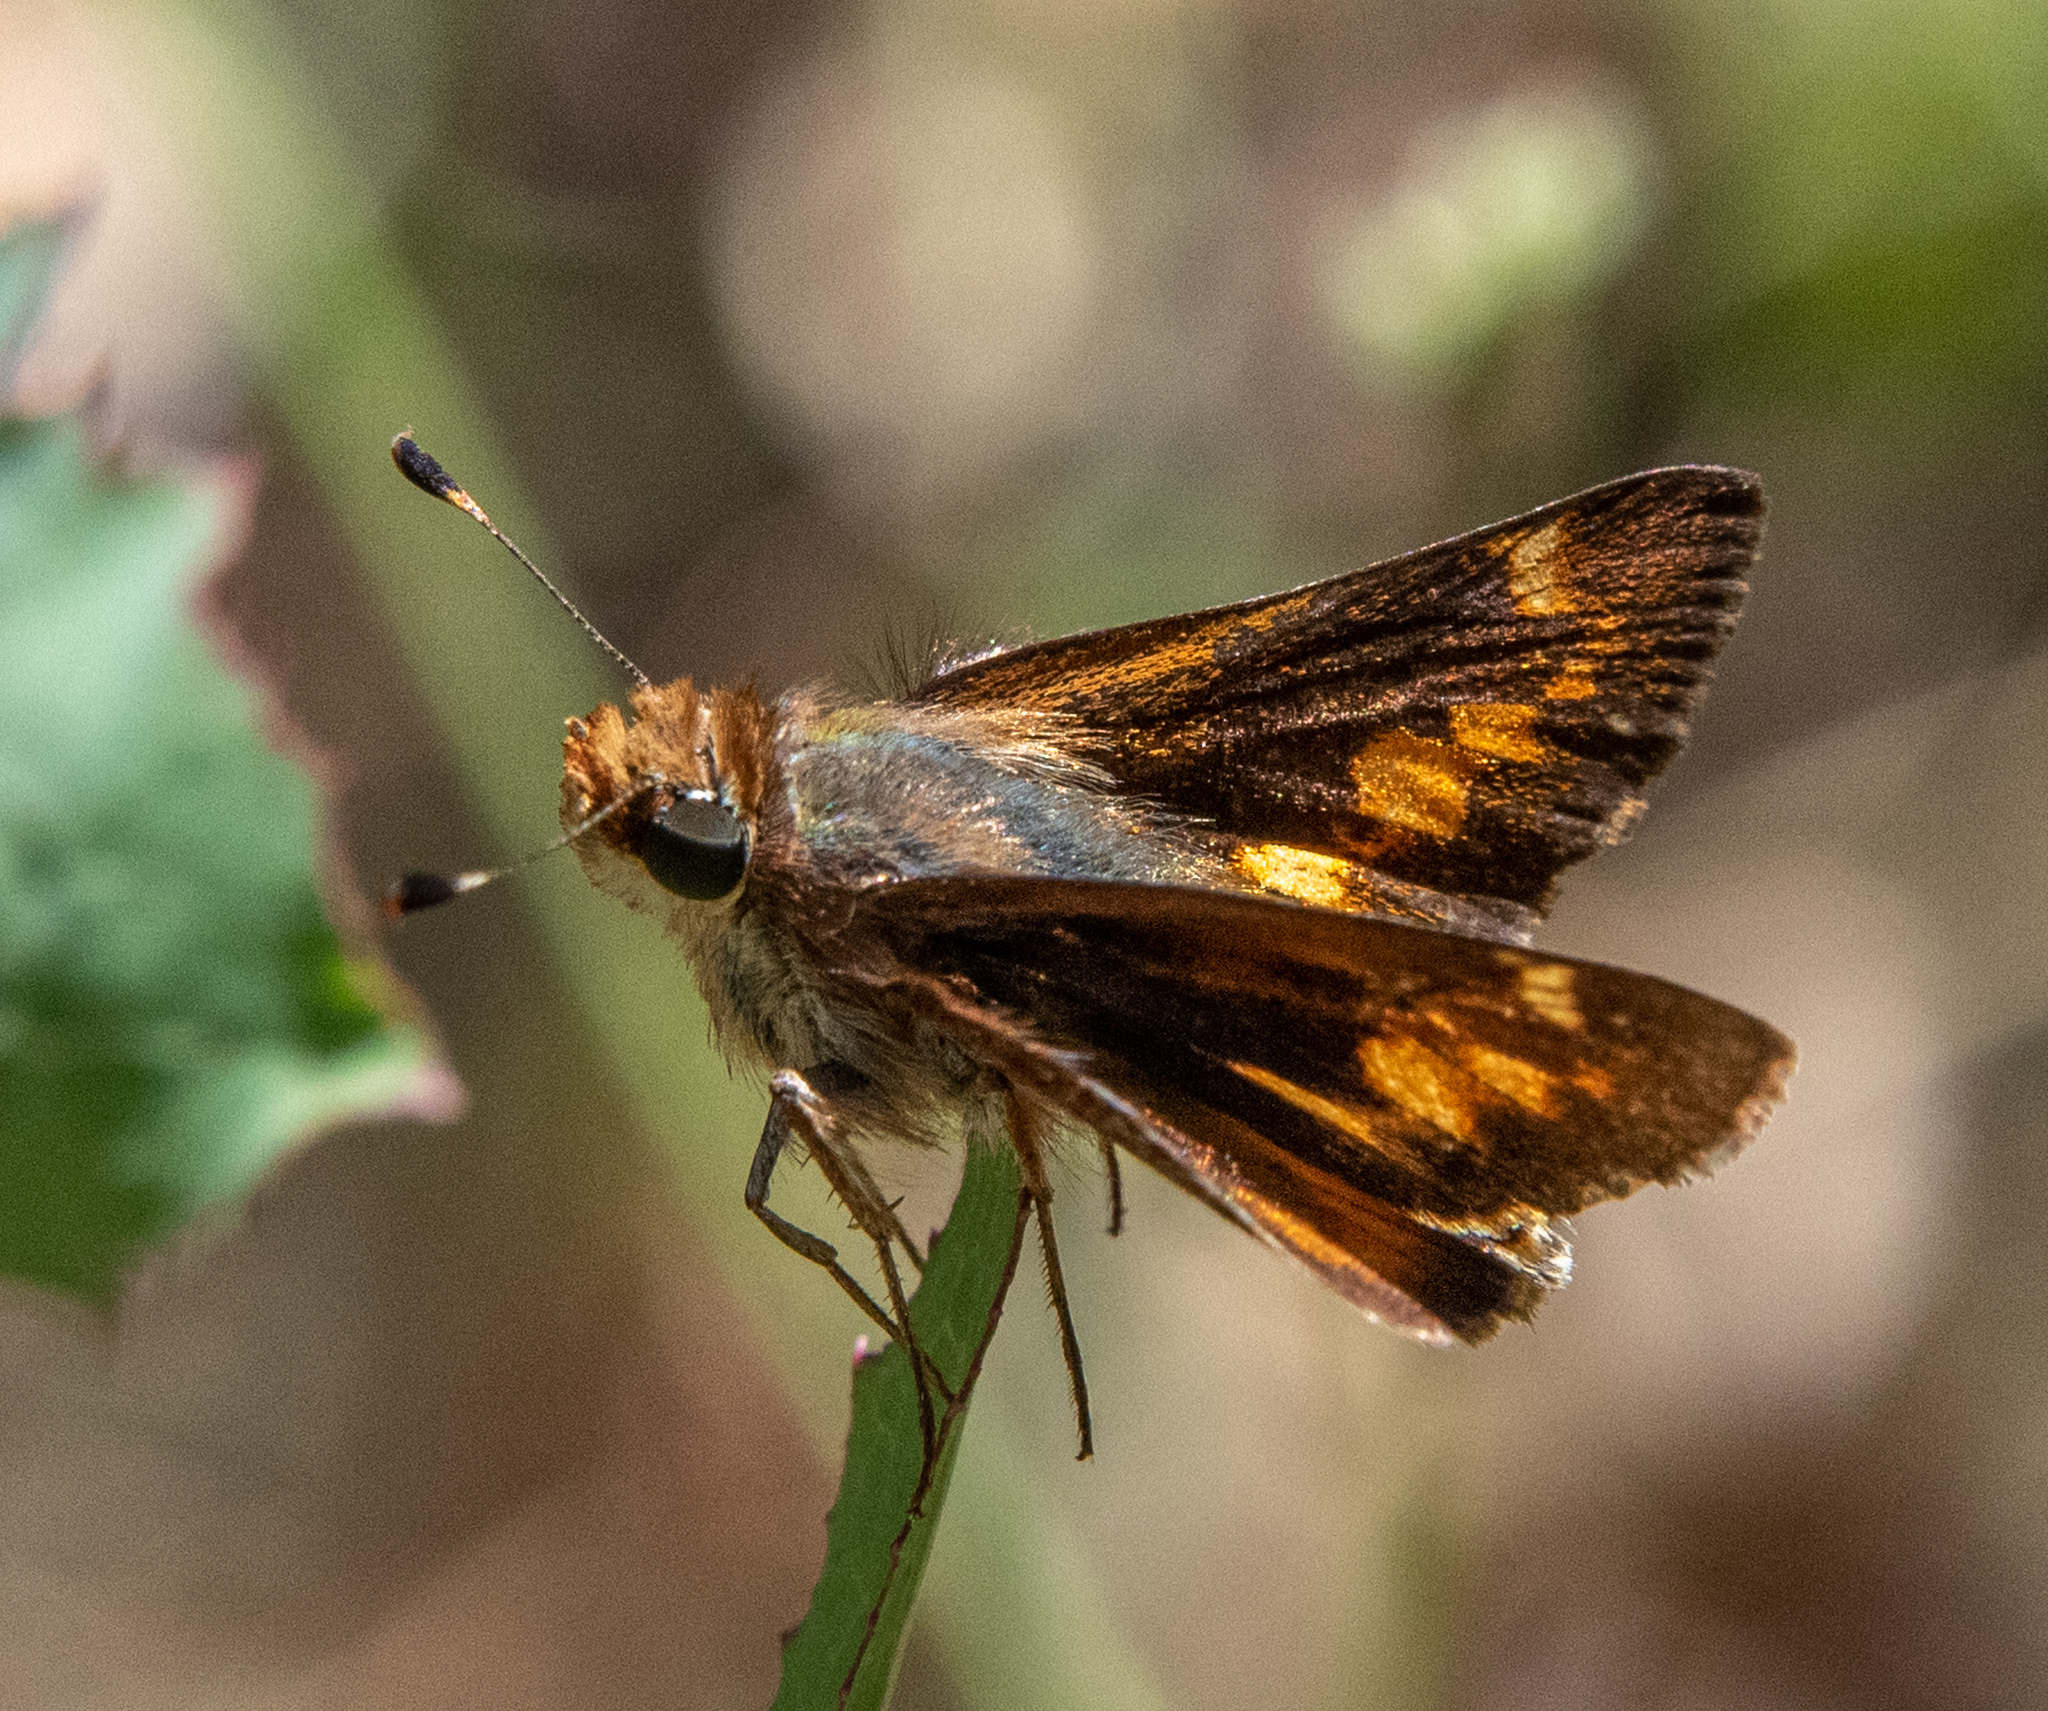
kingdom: Animalia
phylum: Arthropoda
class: Insecta
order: Lepidoptera
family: Hesperiidae
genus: Lon
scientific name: Lon melane
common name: Umber skipper
